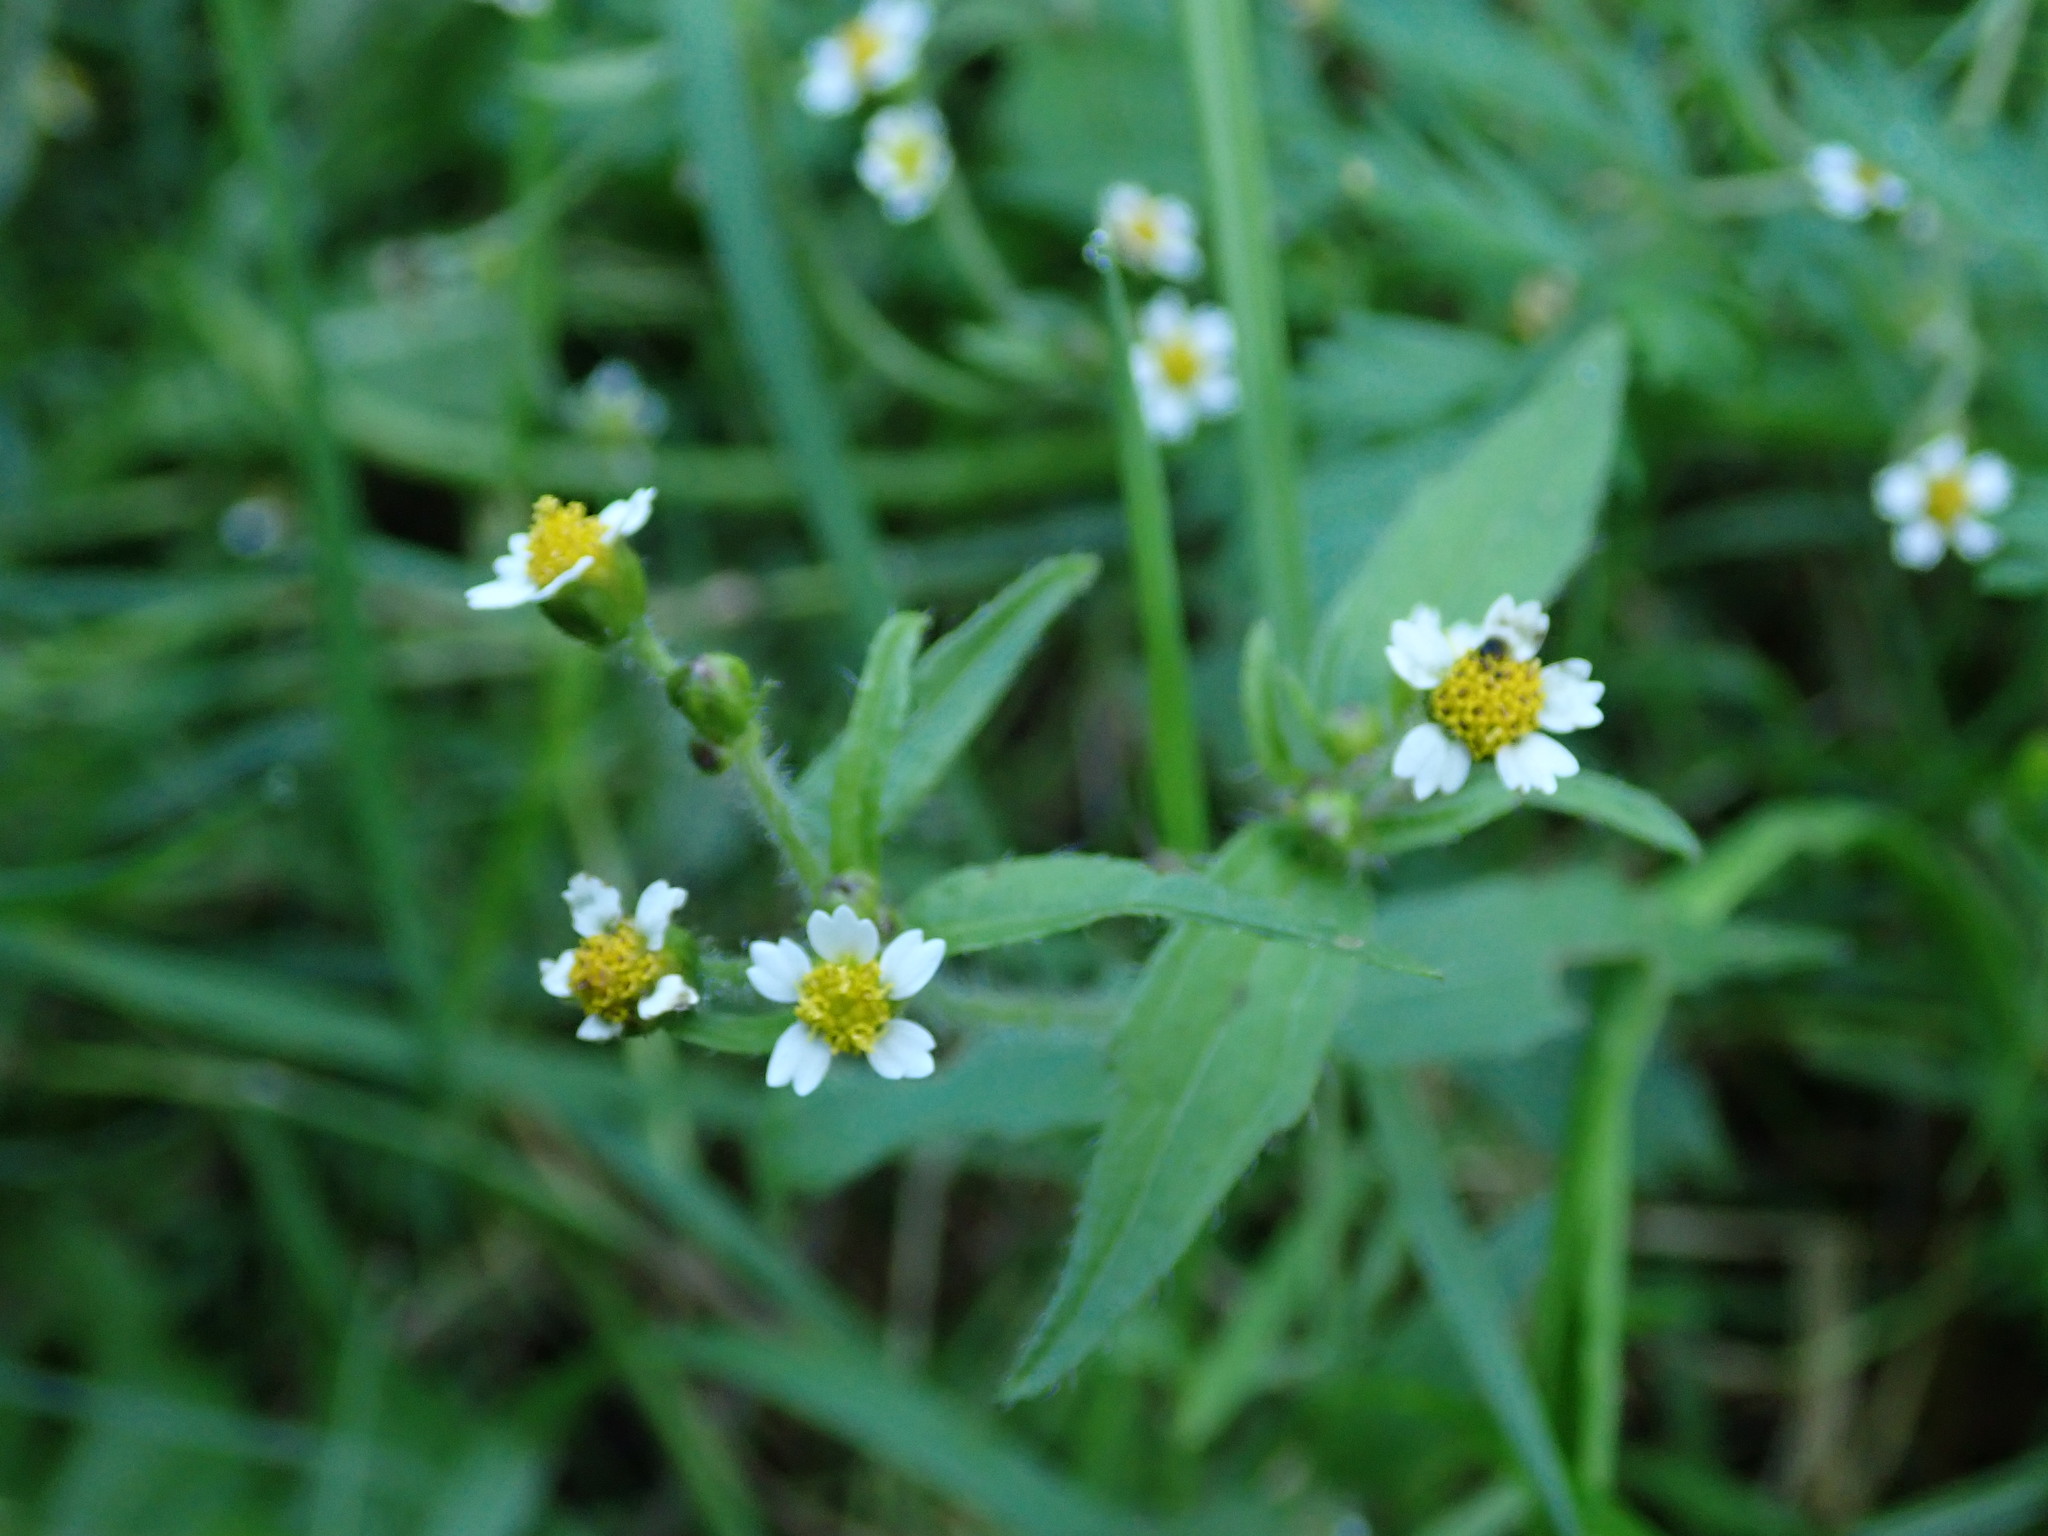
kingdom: Plantae
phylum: Tracheophyta
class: Magnoliopsida
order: Asterales
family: Asteraceae
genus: Galinsoga
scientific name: Galinsoga quadriradiata
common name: Shaggy soldier
